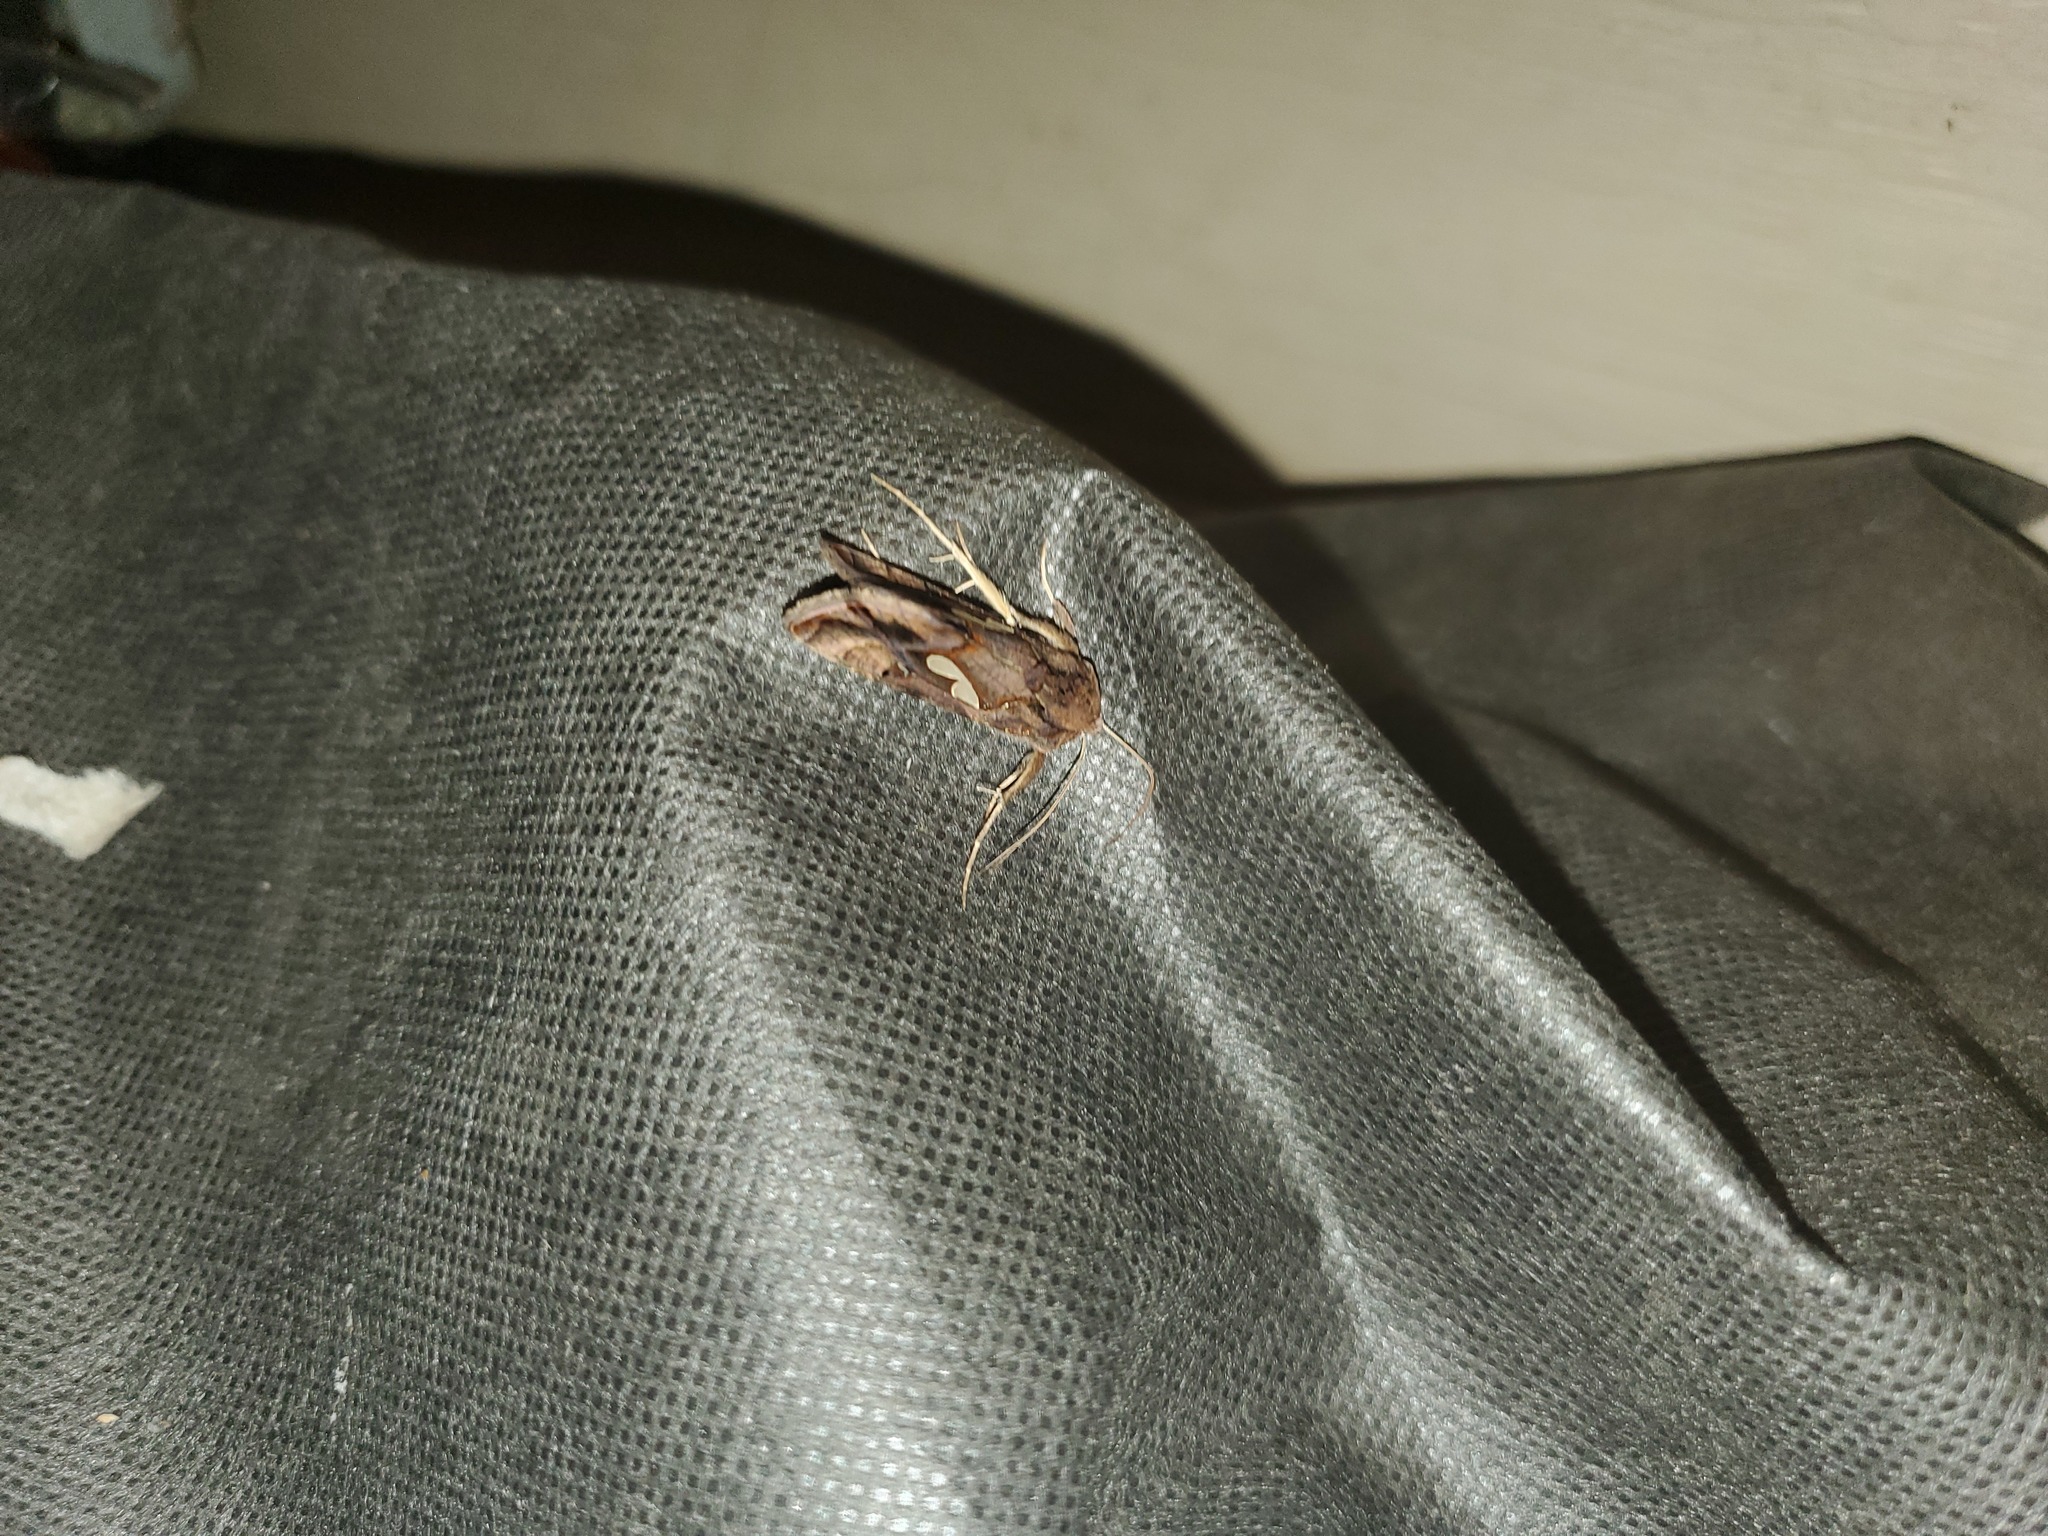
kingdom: Animalia
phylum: Arthropoda
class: Insecta
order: Lepidoptera
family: Noctuidae
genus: Megalographa
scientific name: Megalographa biloba
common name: Cutworm
